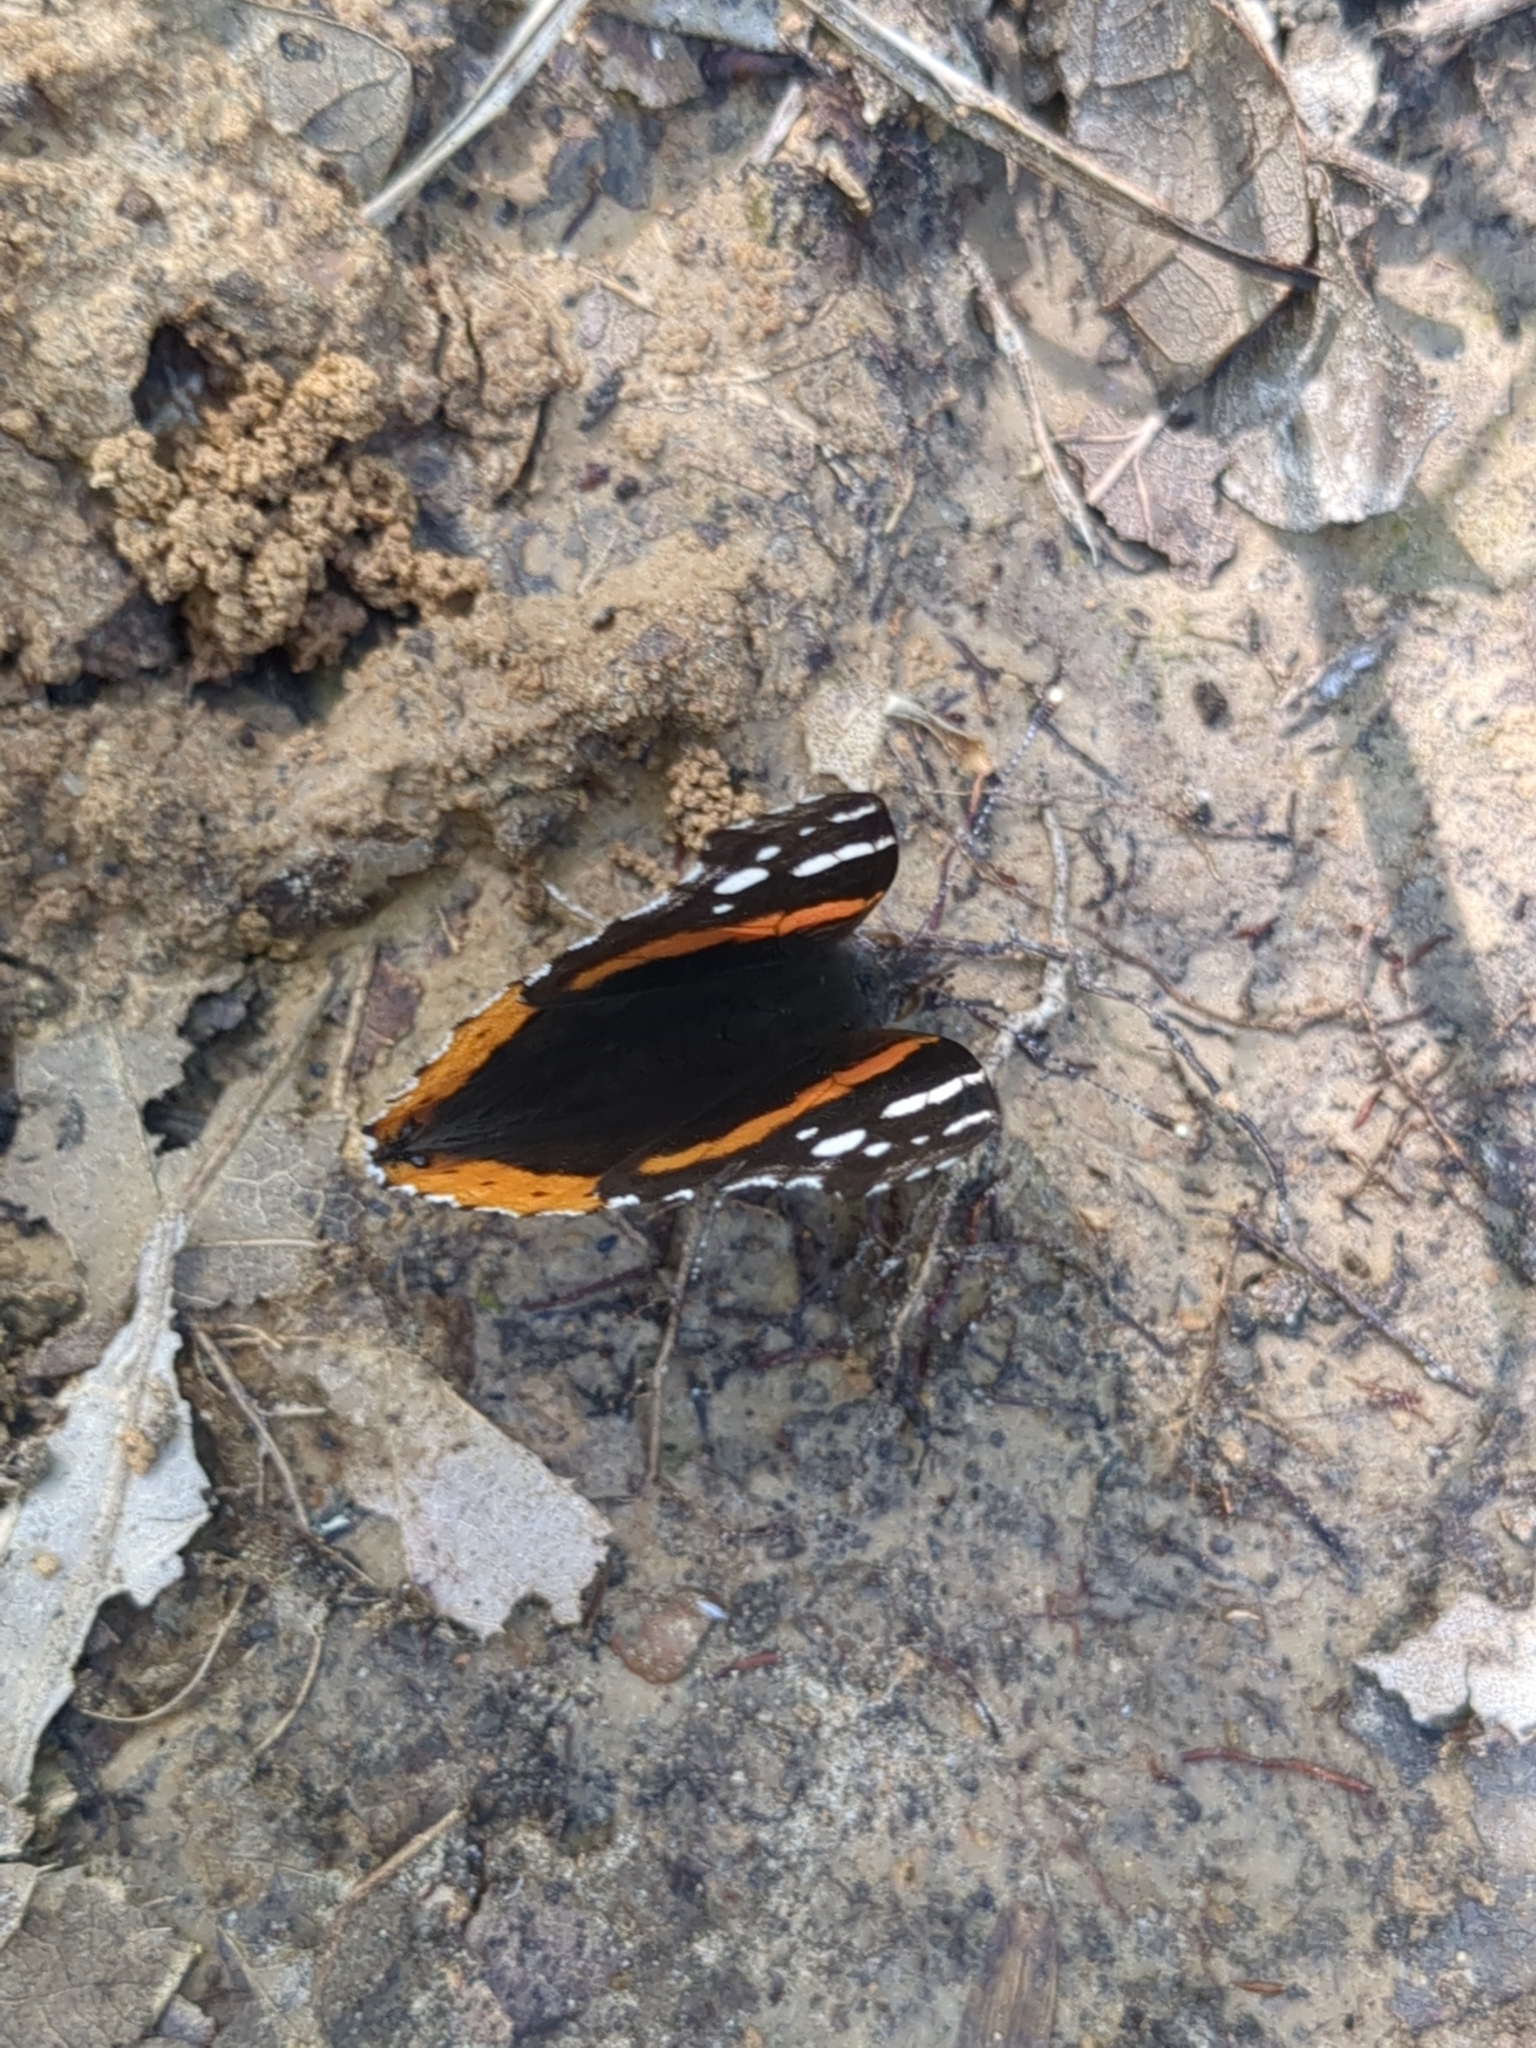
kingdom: Animalia
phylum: Arthropoda
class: Insecta
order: Lepidoptera
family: Nymphalidae
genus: Vanessa
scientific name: Vanessa atalanta
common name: Red admiral
